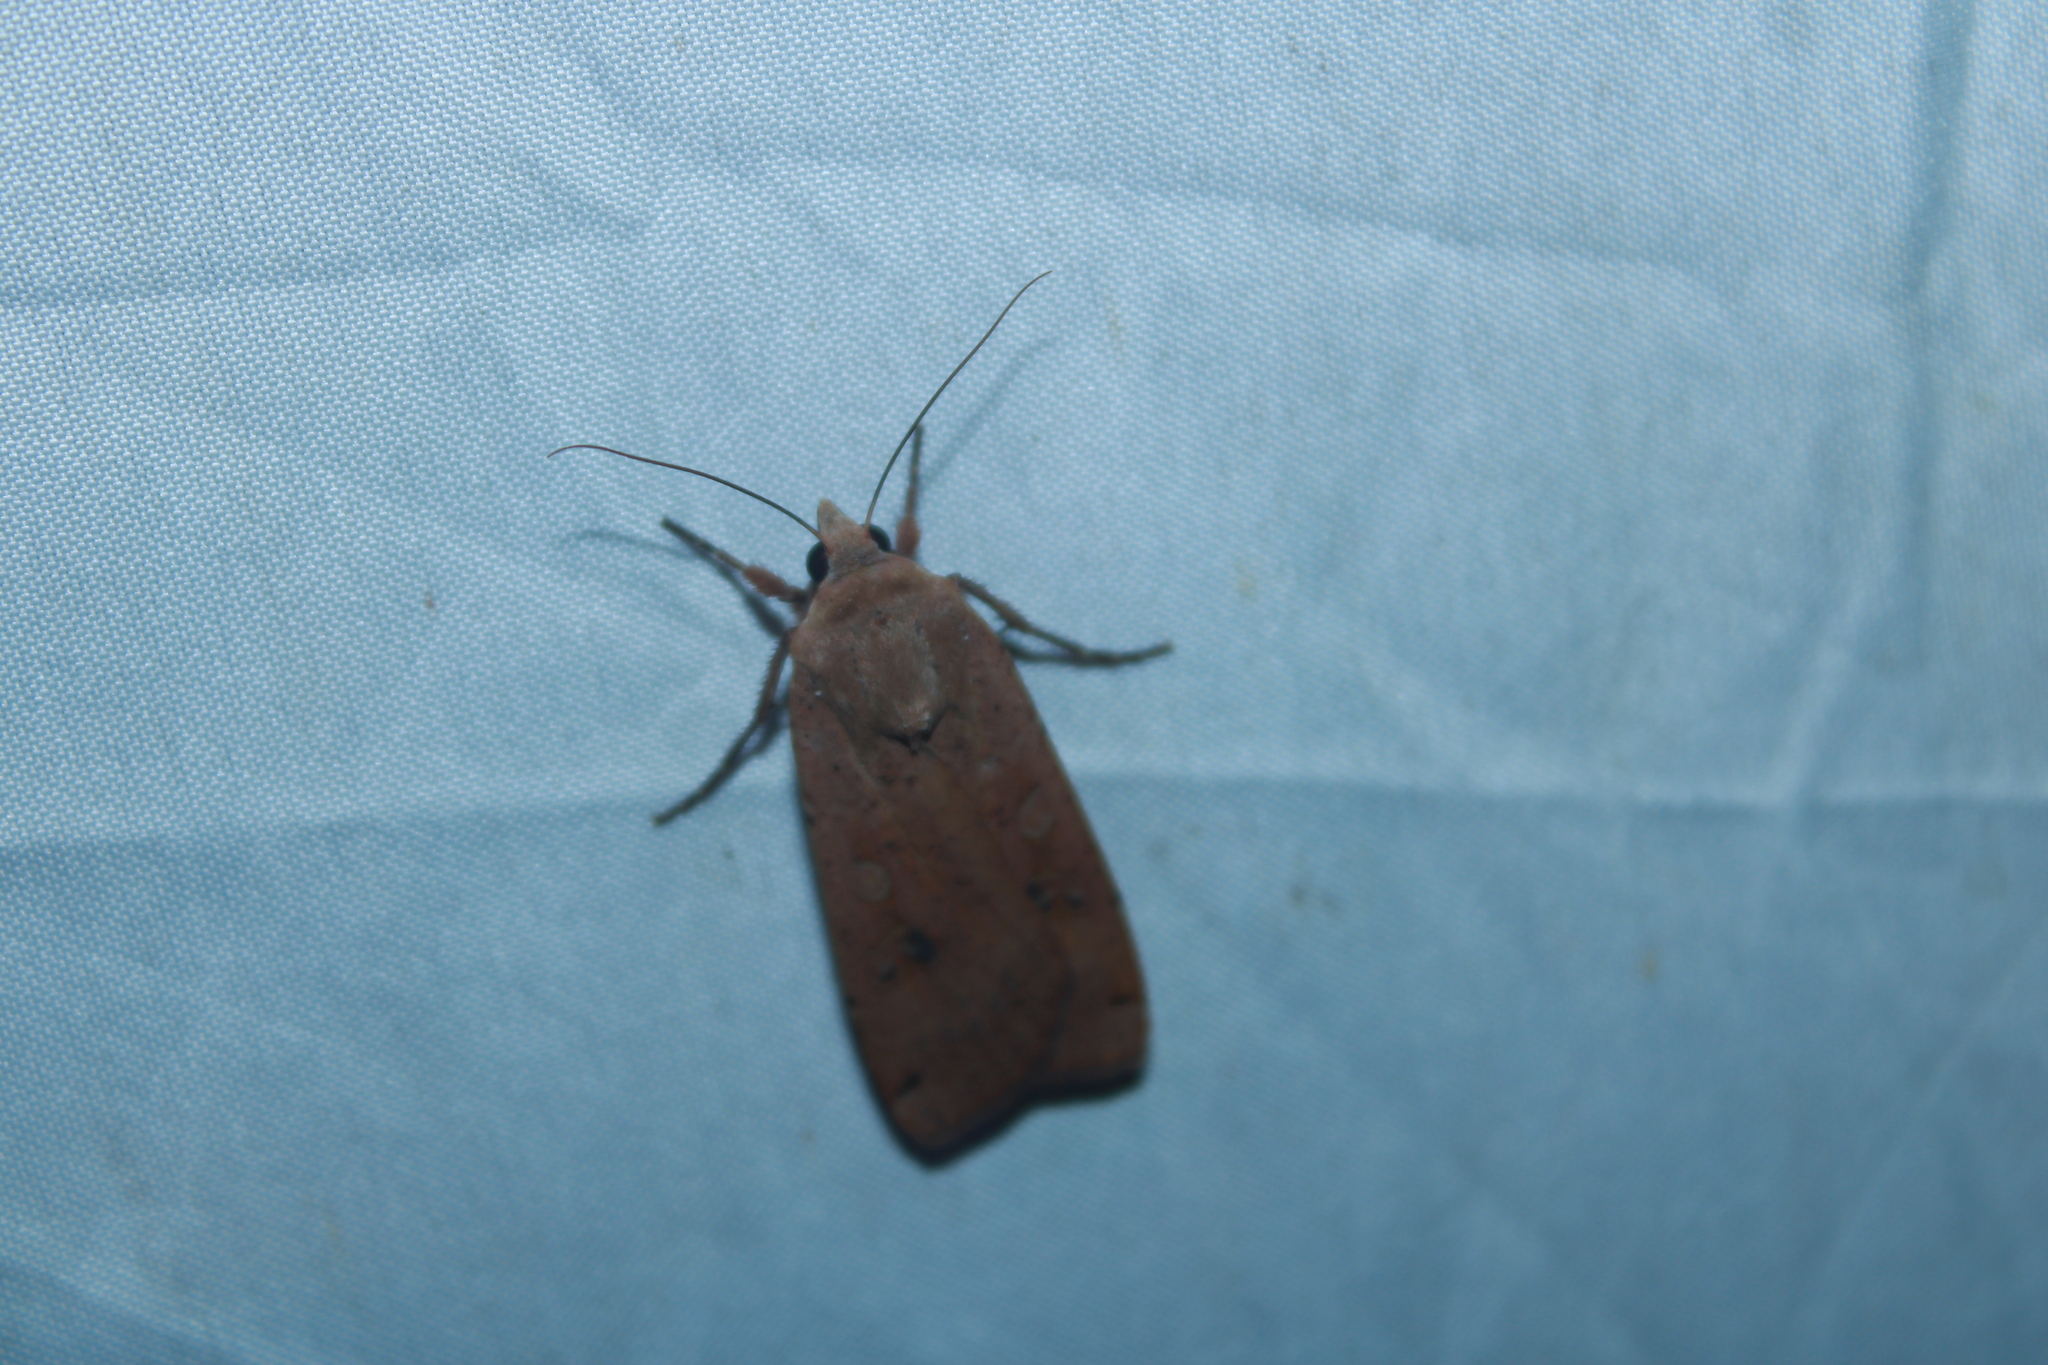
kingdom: Animalia
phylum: Arthropoda
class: Insecta
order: Lepidoptera
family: Noctuidae
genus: Noctua
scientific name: Noctua pronuba
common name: Large yellow underwing
